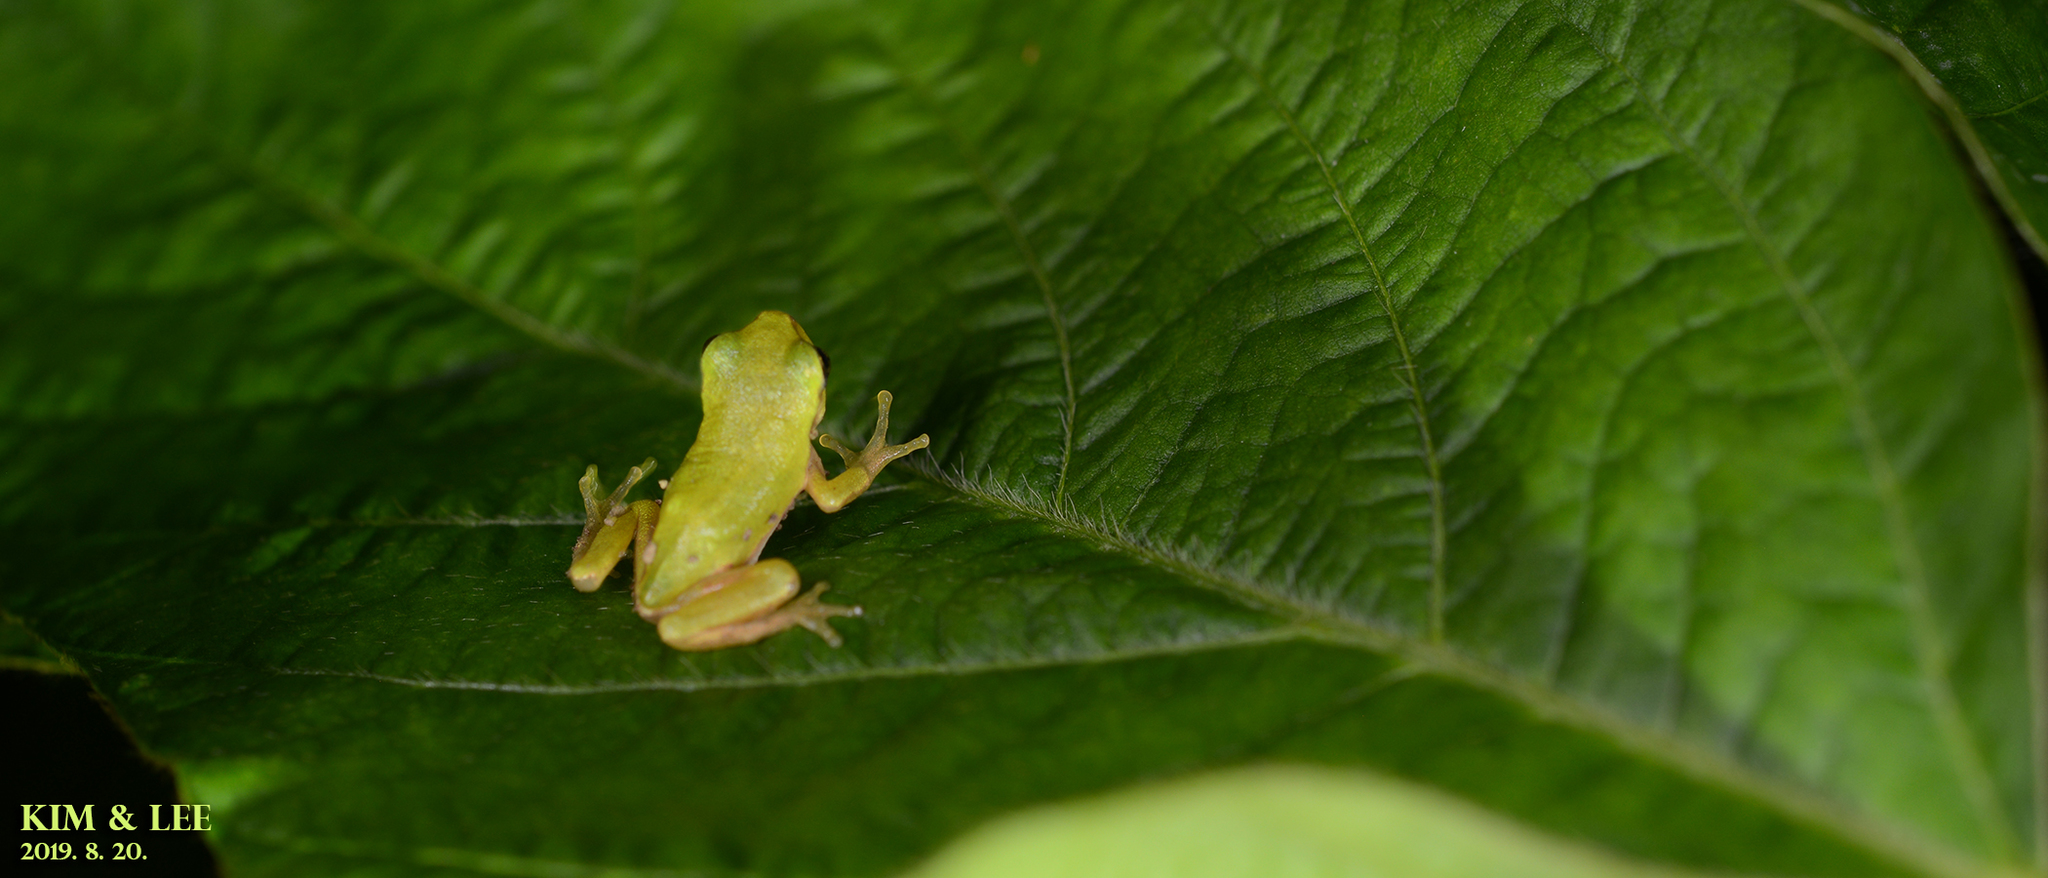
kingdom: Animalia
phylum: Chordata
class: Amphibia
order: Anura
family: Hylidae
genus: Dryophytes
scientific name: Dryophytes japonicus
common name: Japanese treefrog
